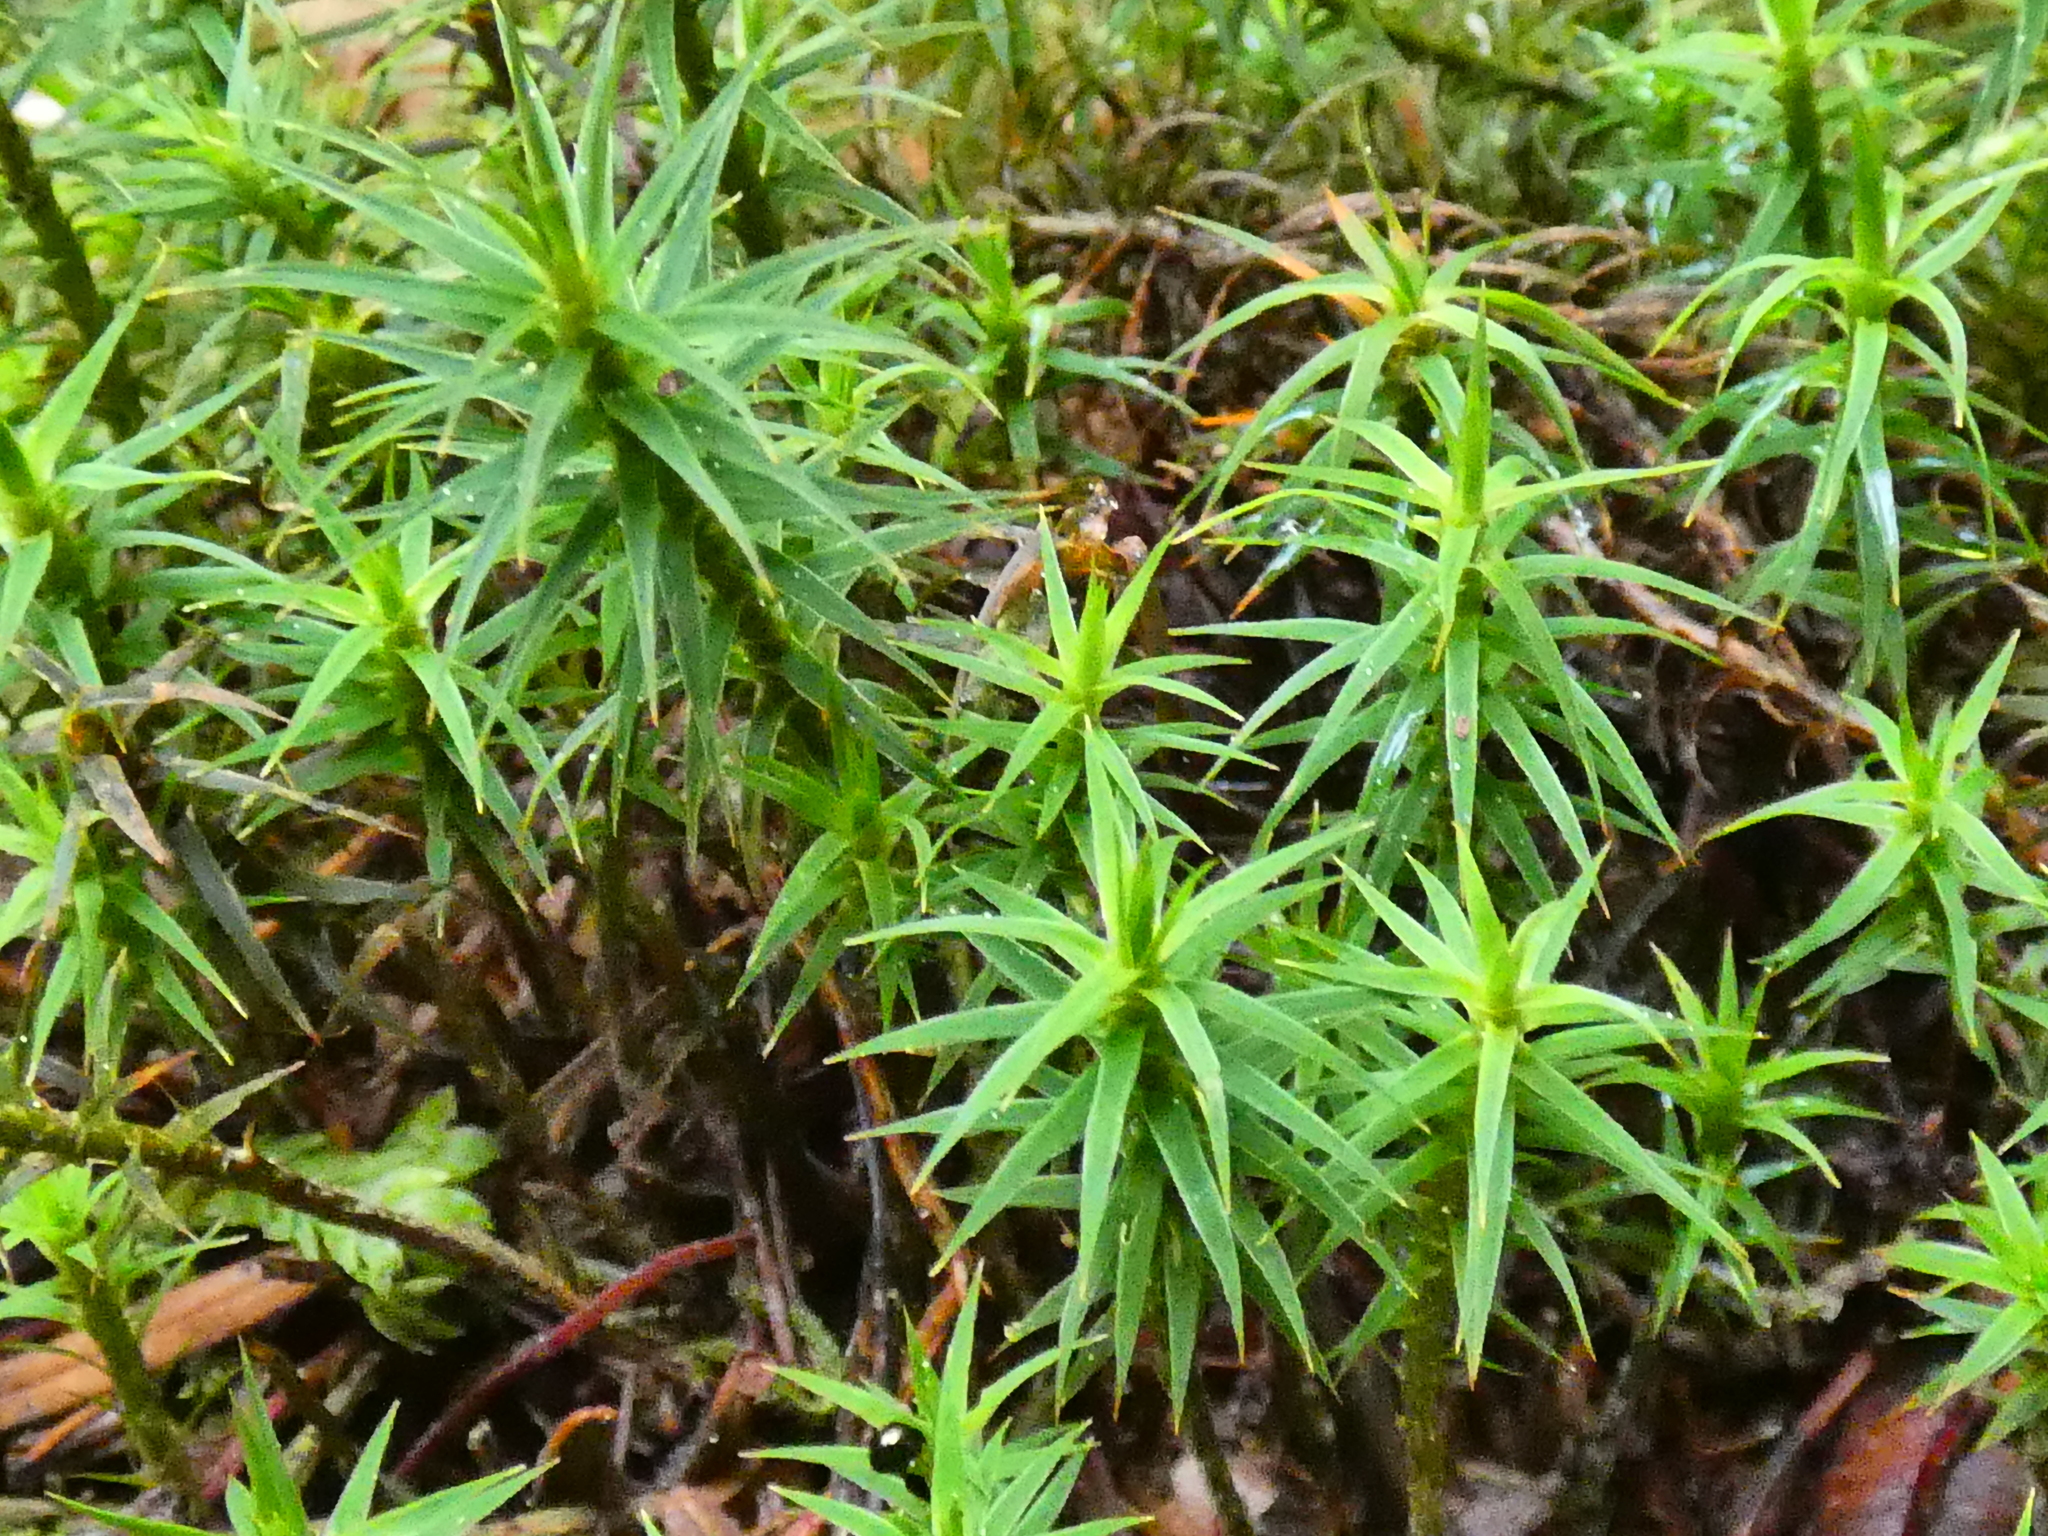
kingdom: Plantae
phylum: Bryophyta
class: Polytrichopsida
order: Polytrichales
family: Polytrichaceae
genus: Polytrichum
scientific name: Polytrichum formosum
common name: Bank haircap moss
